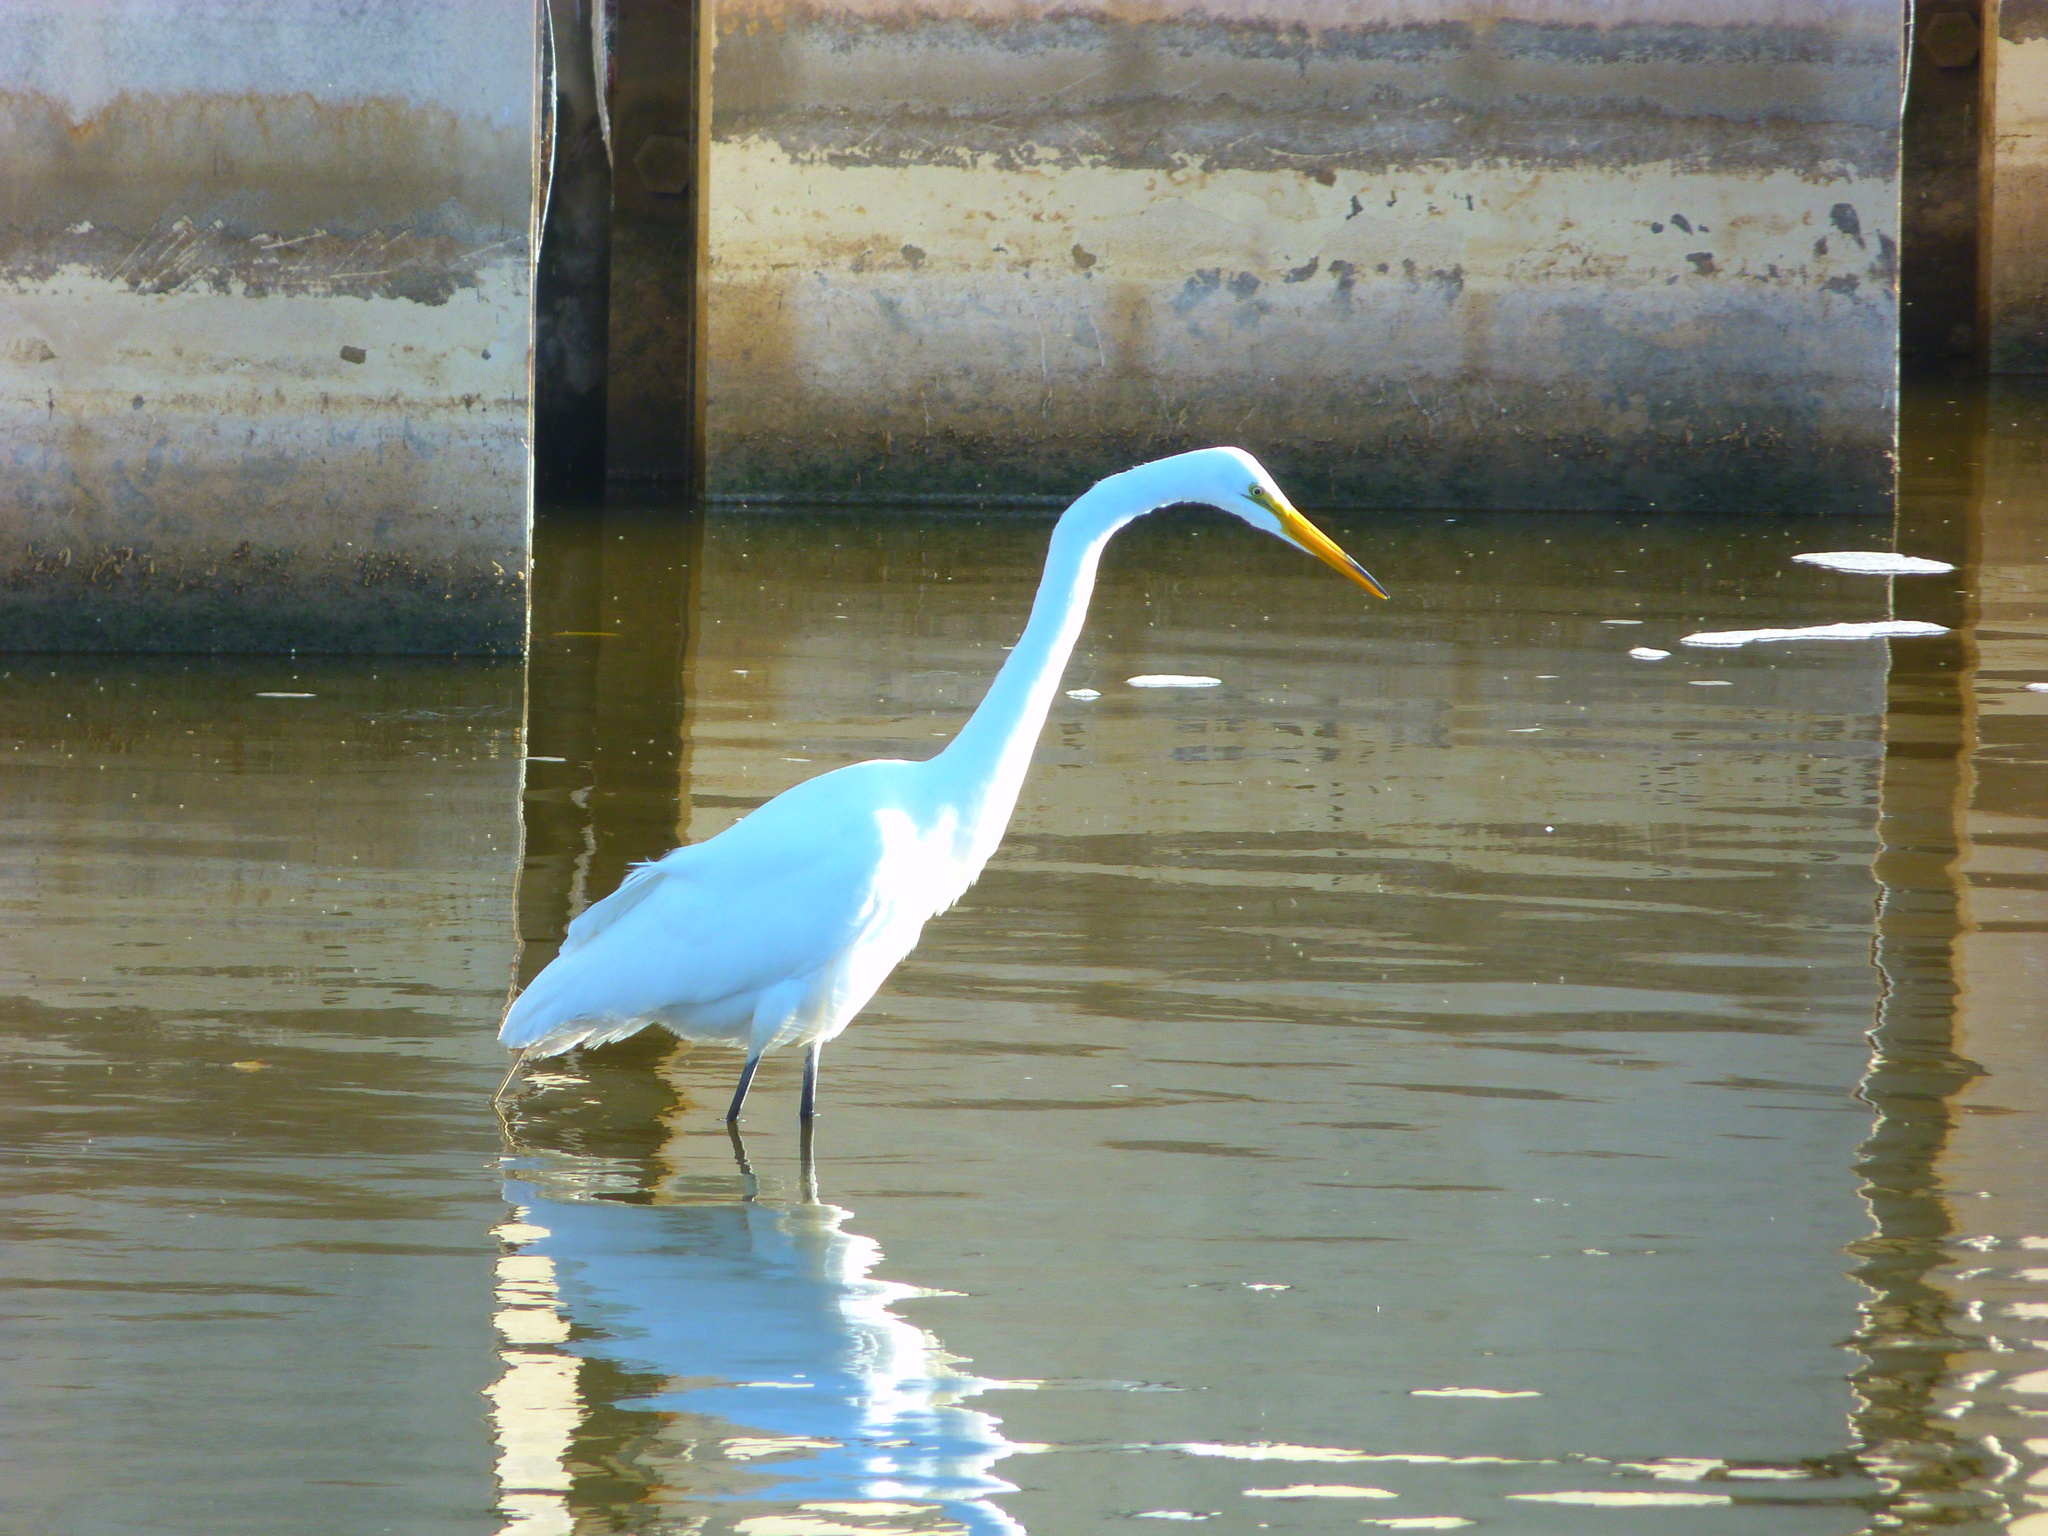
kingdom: Animalia
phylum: Chordata
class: Aves
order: Pelecaniformes
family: Ardeidae
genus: Ardea
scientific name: Ardea alba
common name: Great egret
